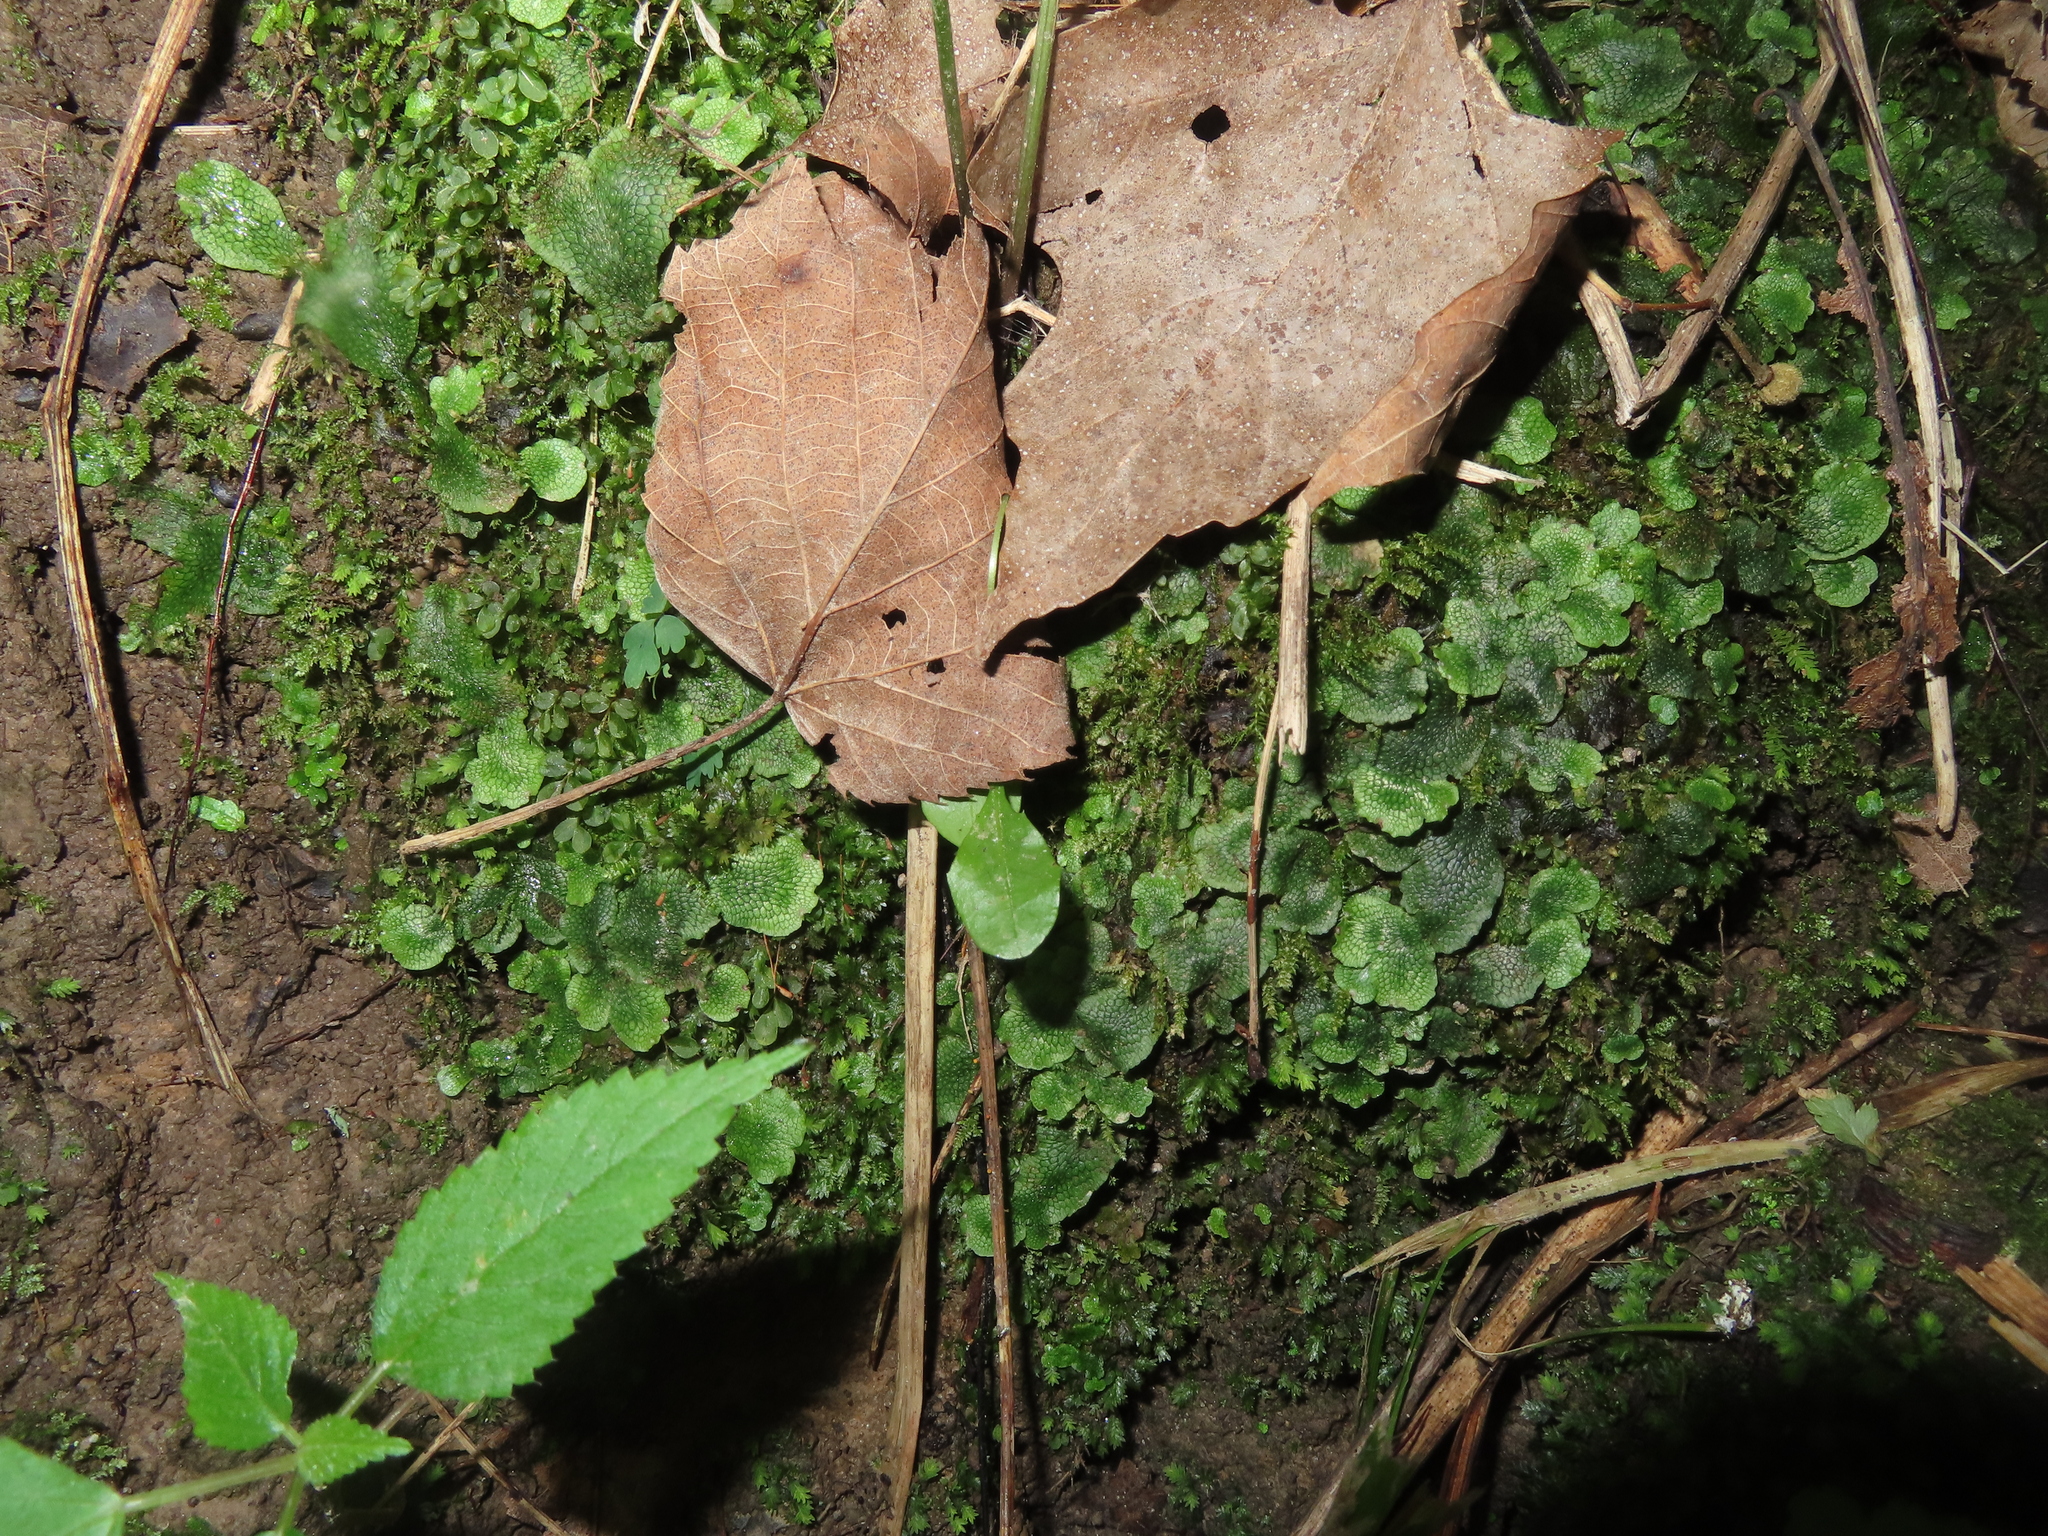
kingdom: Plantae
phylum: Marchantiophyta
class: Marchantiopsida
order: Marchantiales
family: Conocephalaceae
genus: Conocephalum
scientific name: Conocephalum salebrosum
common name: Cat-tongue liverwort
